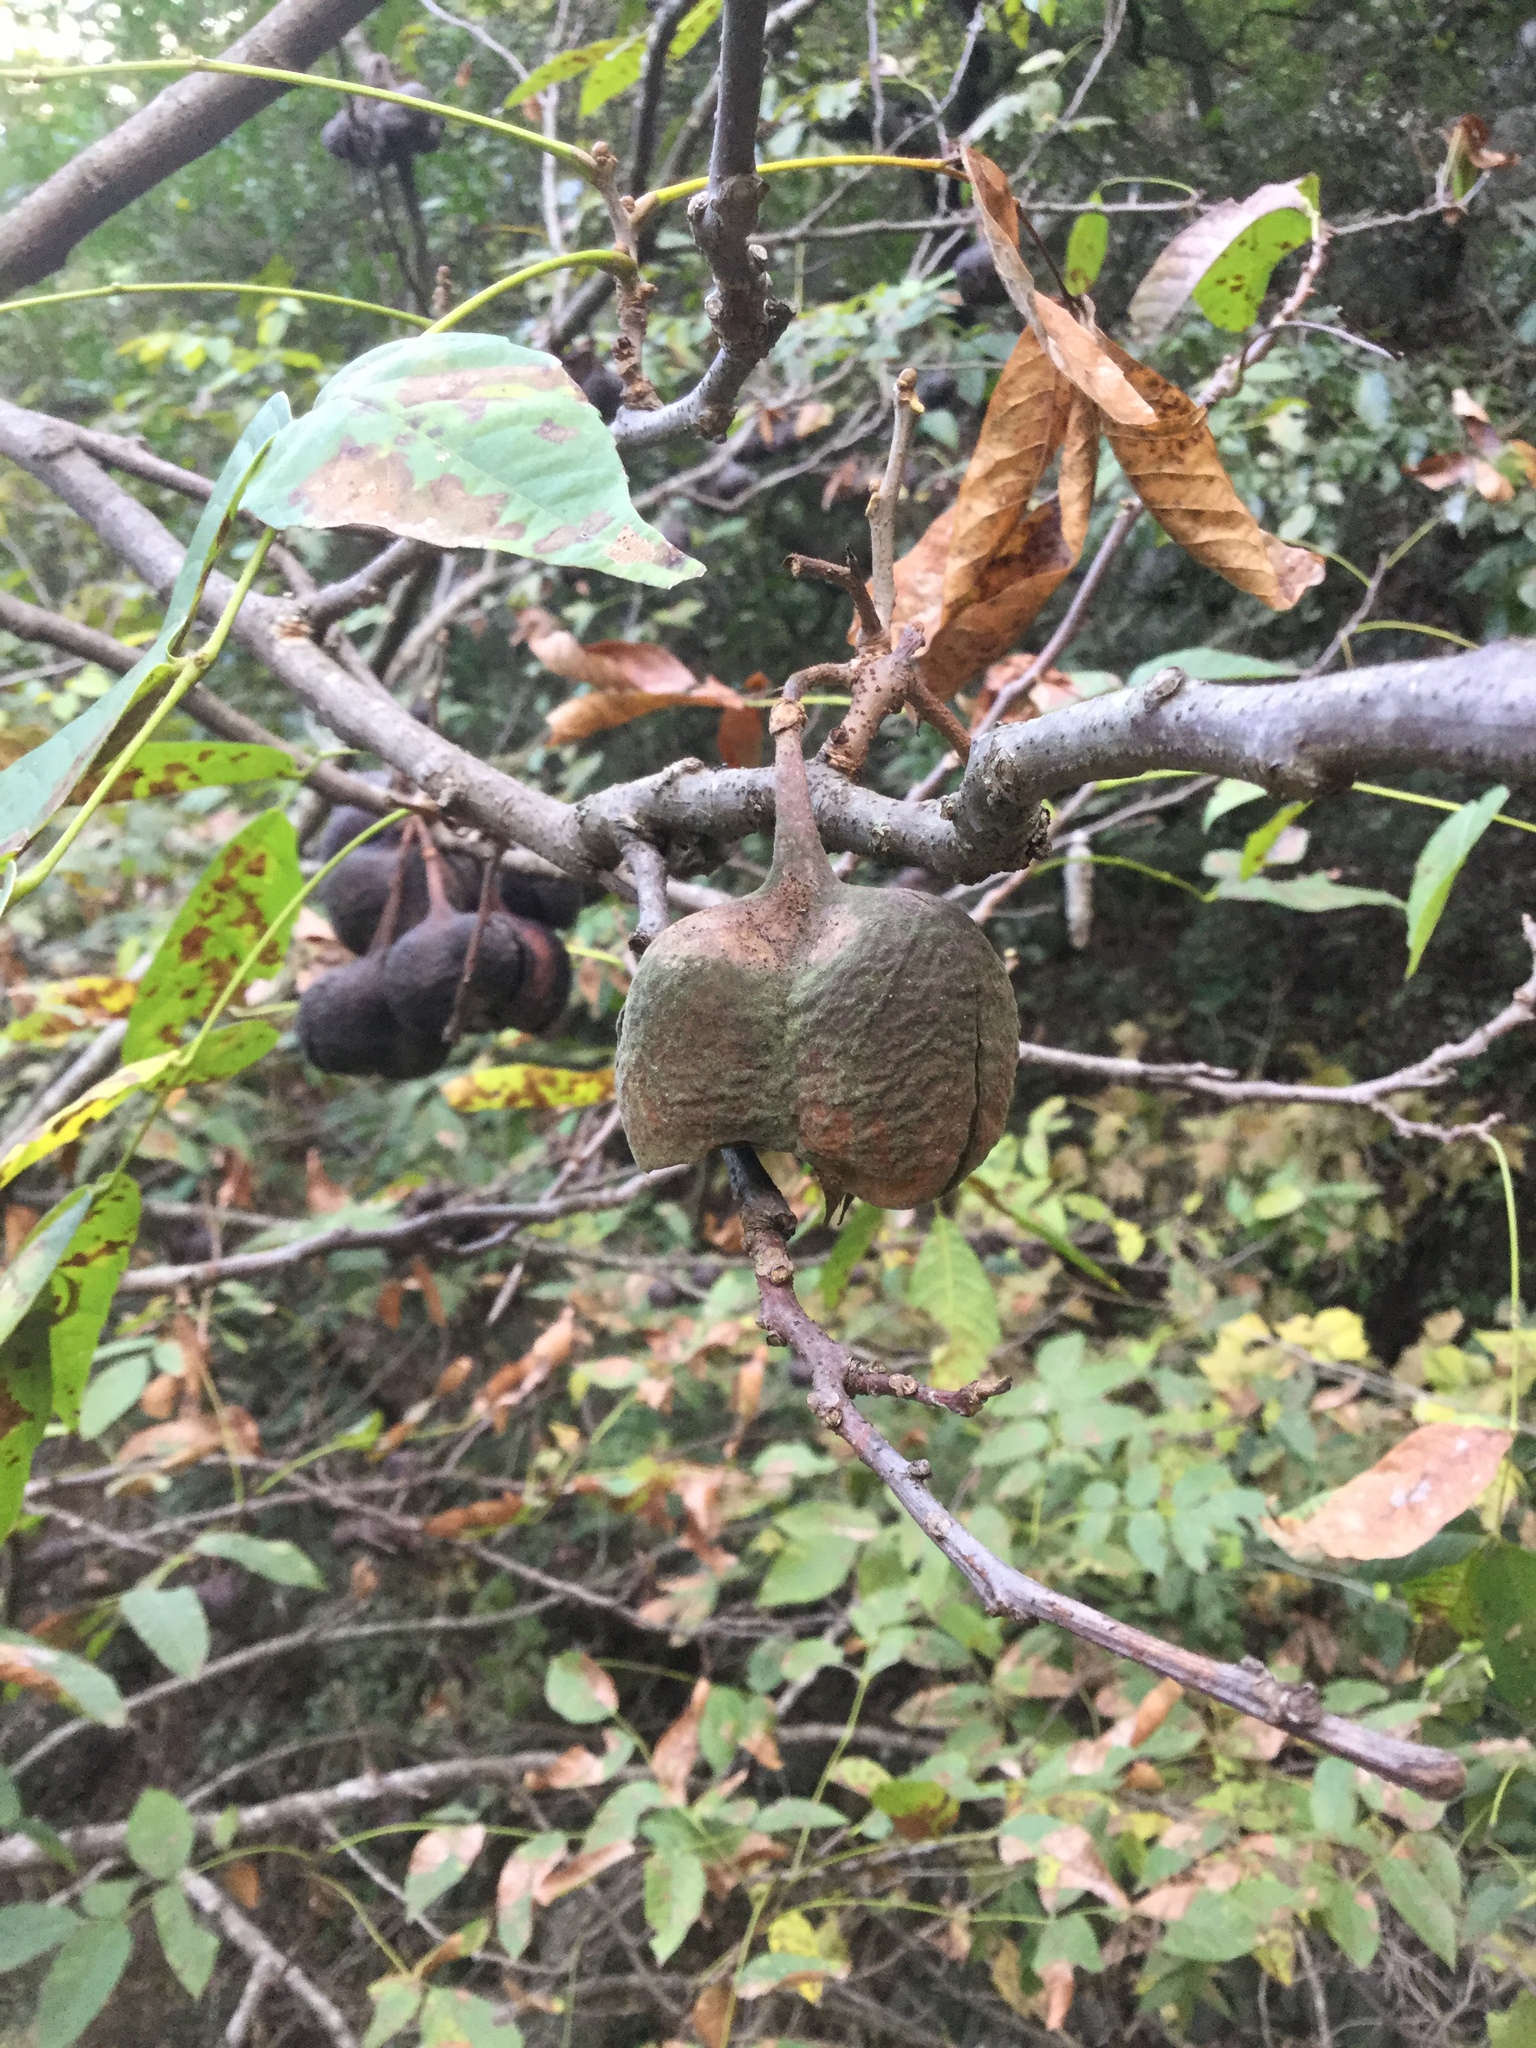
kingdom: Plantae
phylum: Tracheophyta
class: Magnoliopsida
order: Sapindales
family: Sapindaceae
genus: Ungnadia
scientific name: Ungnadia speciosa
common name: Texas-buckeye
